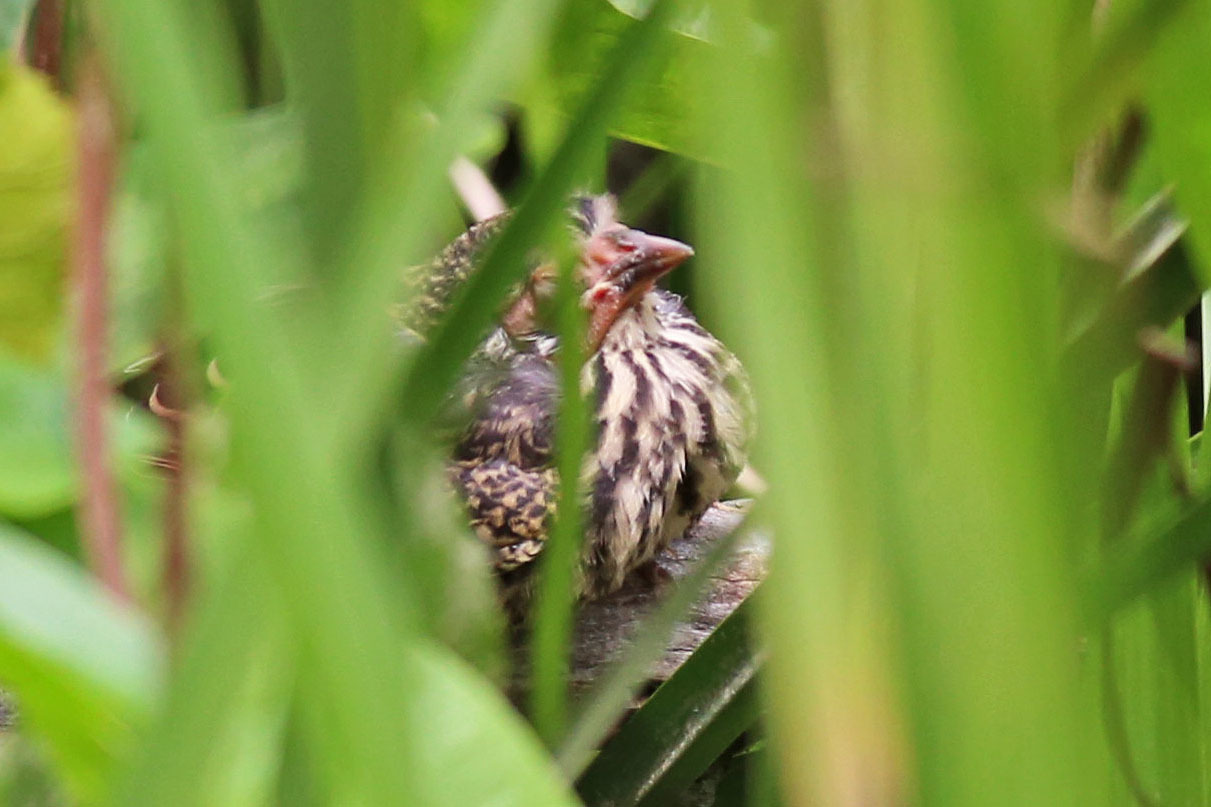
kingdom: Animalia
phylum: Chordata
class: Aves
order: Passeriformes
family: Icteridae
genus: Agelaius
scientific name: Agelaius phoeniceus
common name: Red-winged blackbird
